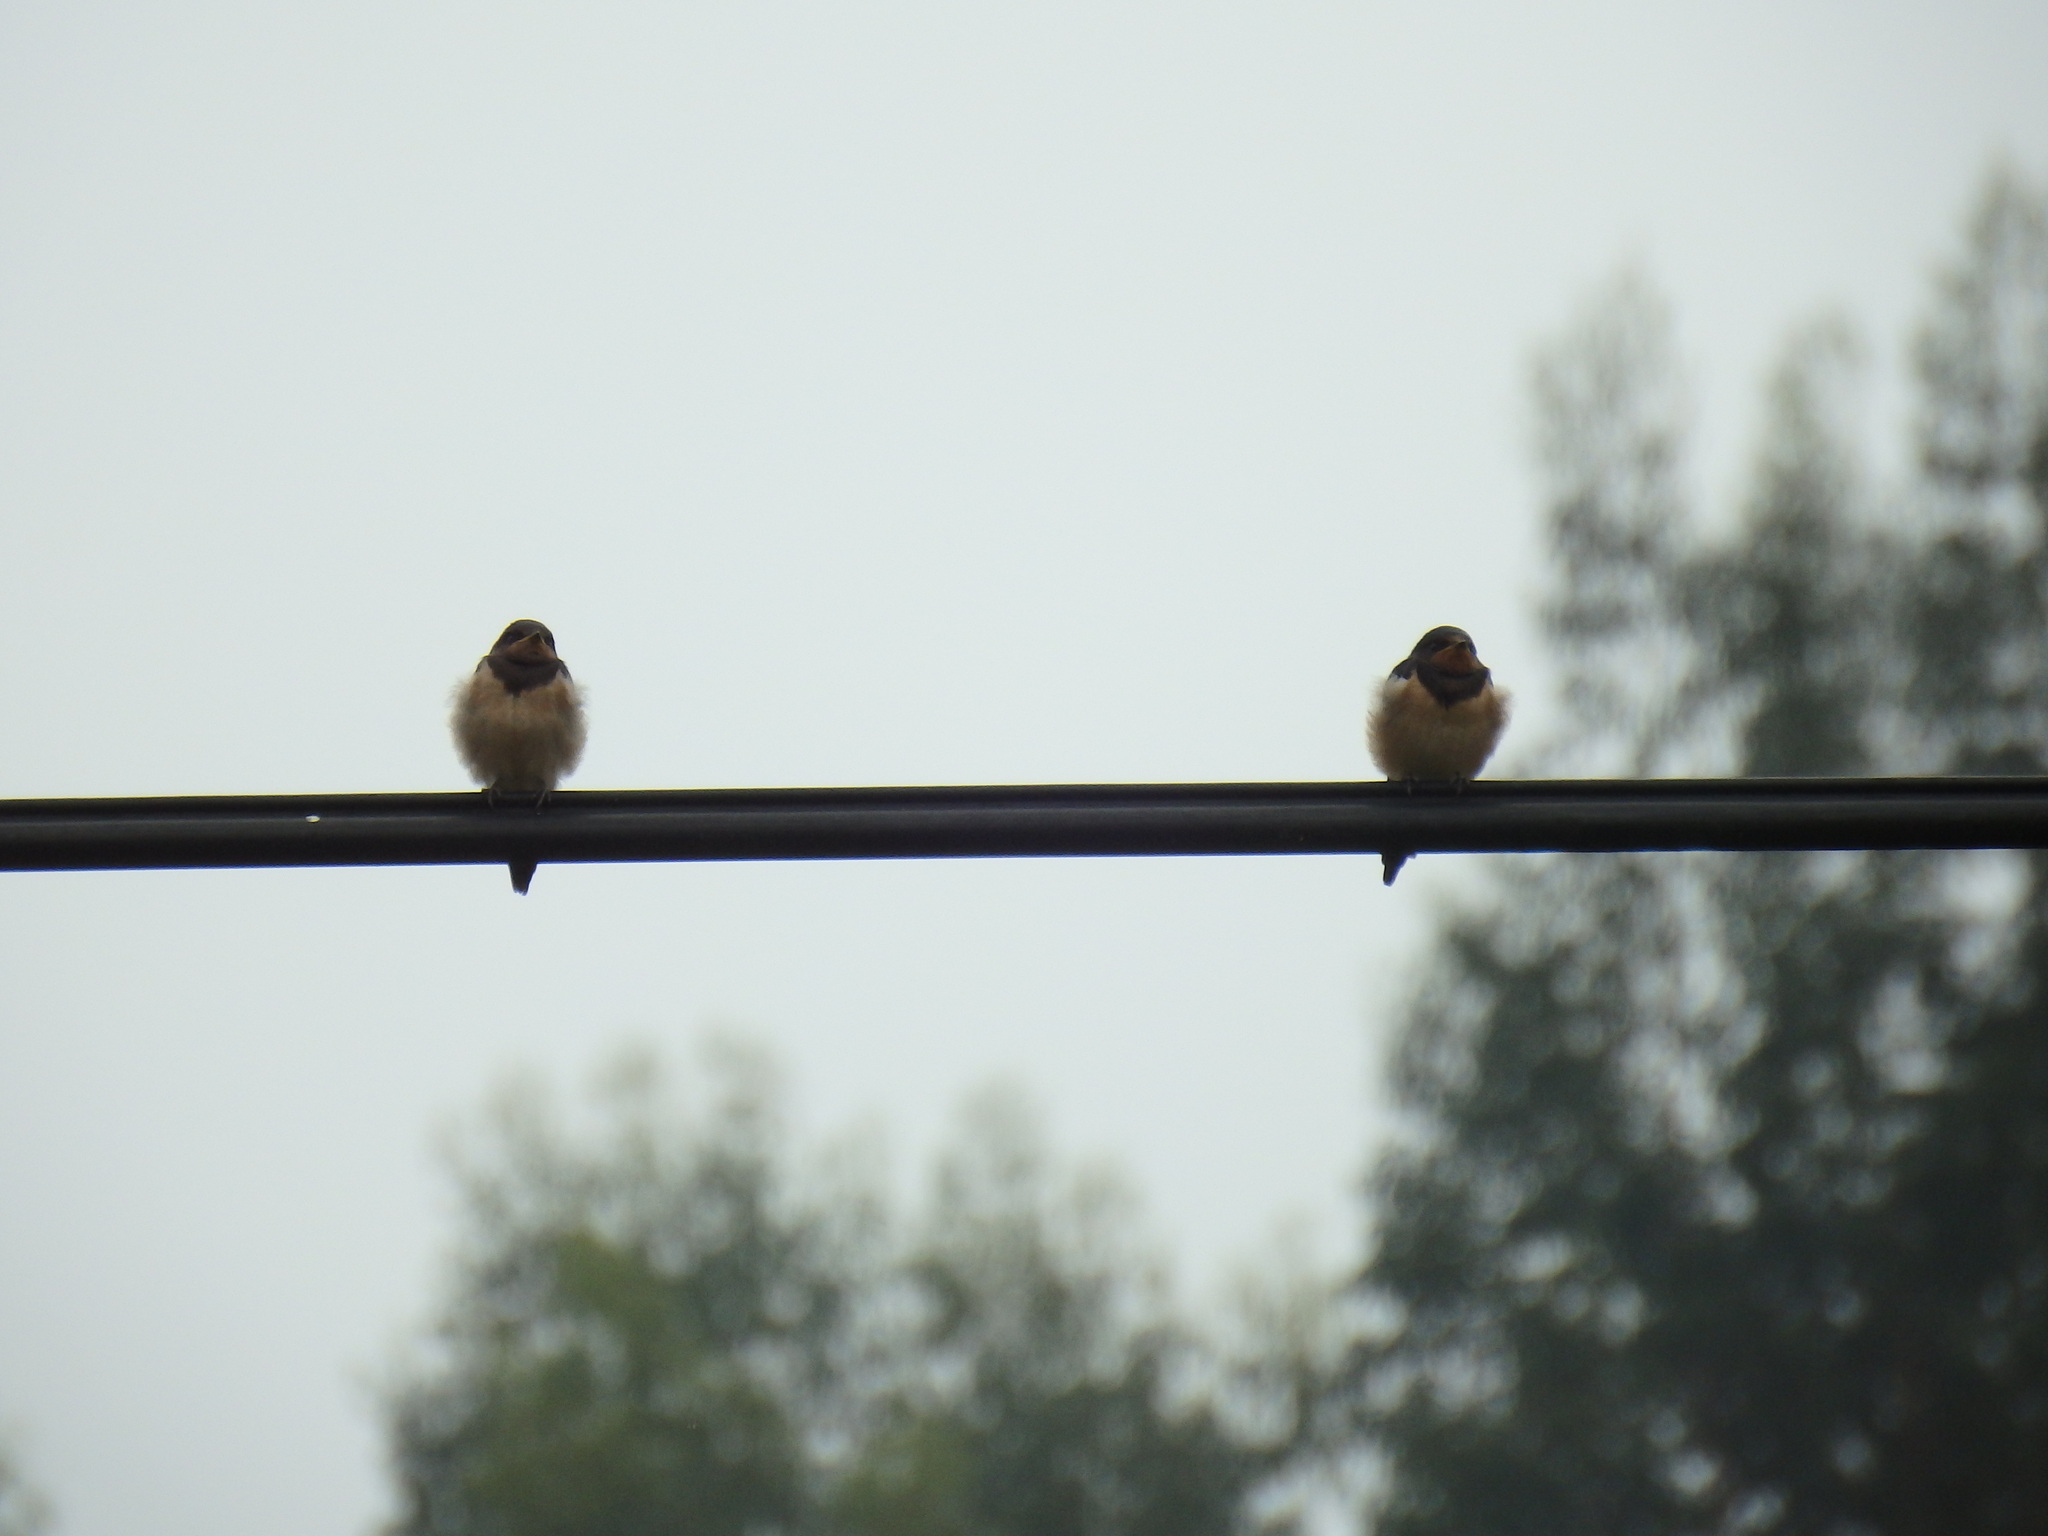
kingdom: Animalia
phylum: Chordata
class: Aves
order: Passeriformes
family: Hirundinidae
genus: Hirundo
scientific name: Hirundo rustica
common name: Barn swallow
